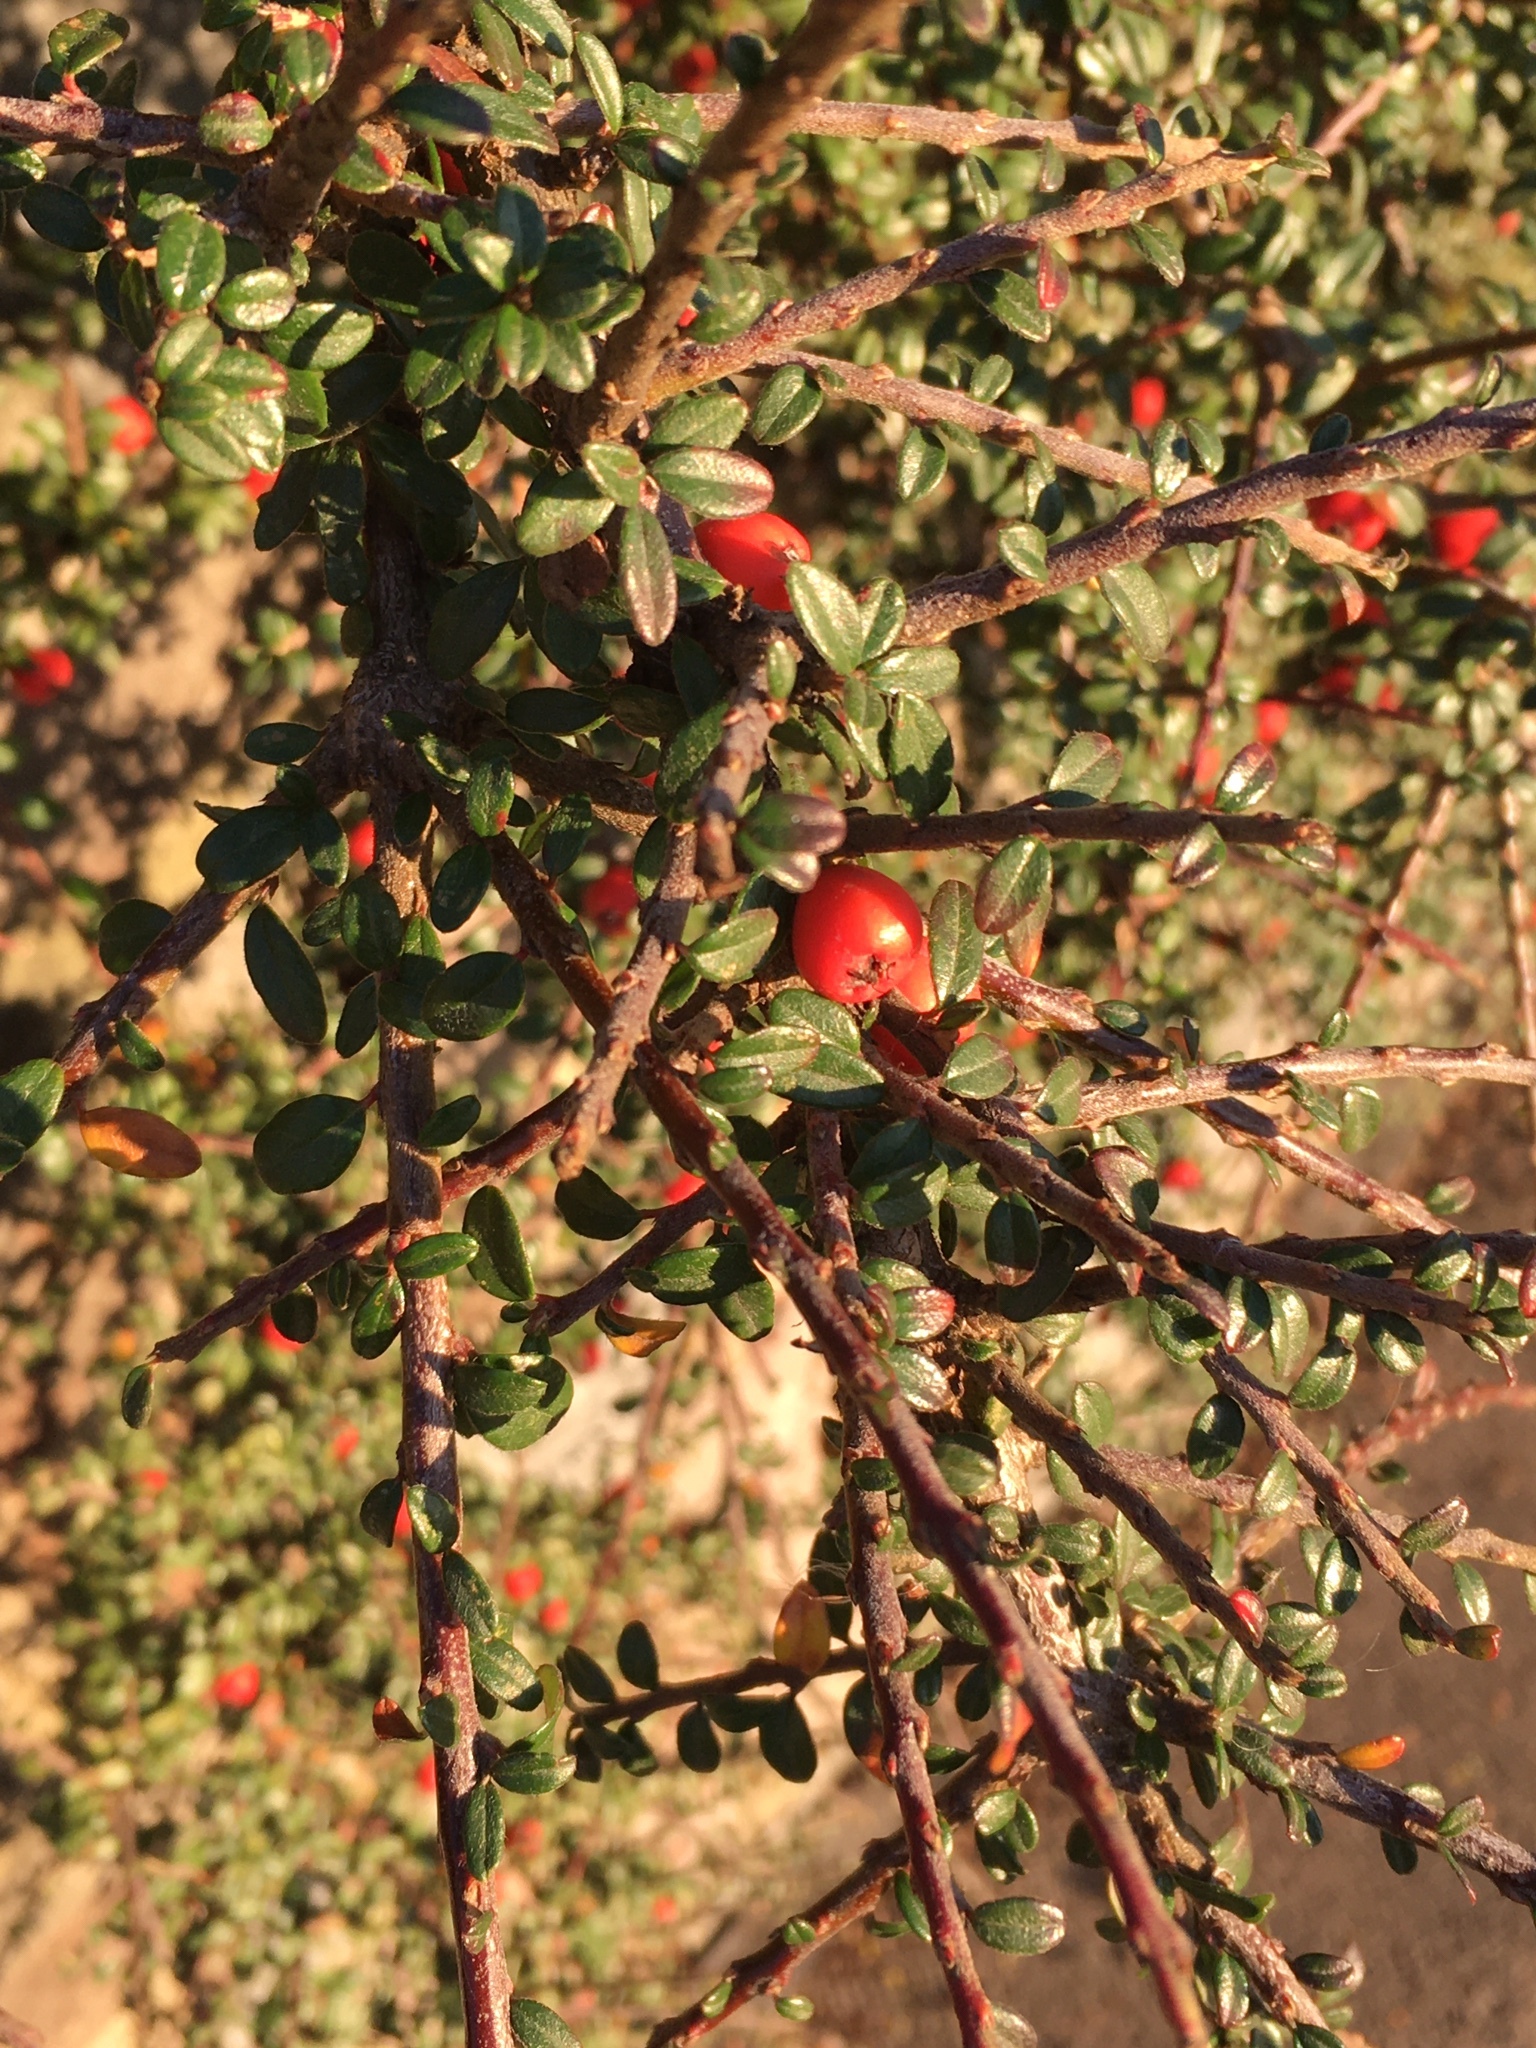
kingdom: Plantae
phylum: Tracheophyta
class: Magnoliopsida
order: Rosales
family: Rosaceae
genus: Cotoneaster
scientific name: Cotoneaster horizontalis
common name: Wall cotoneaster
